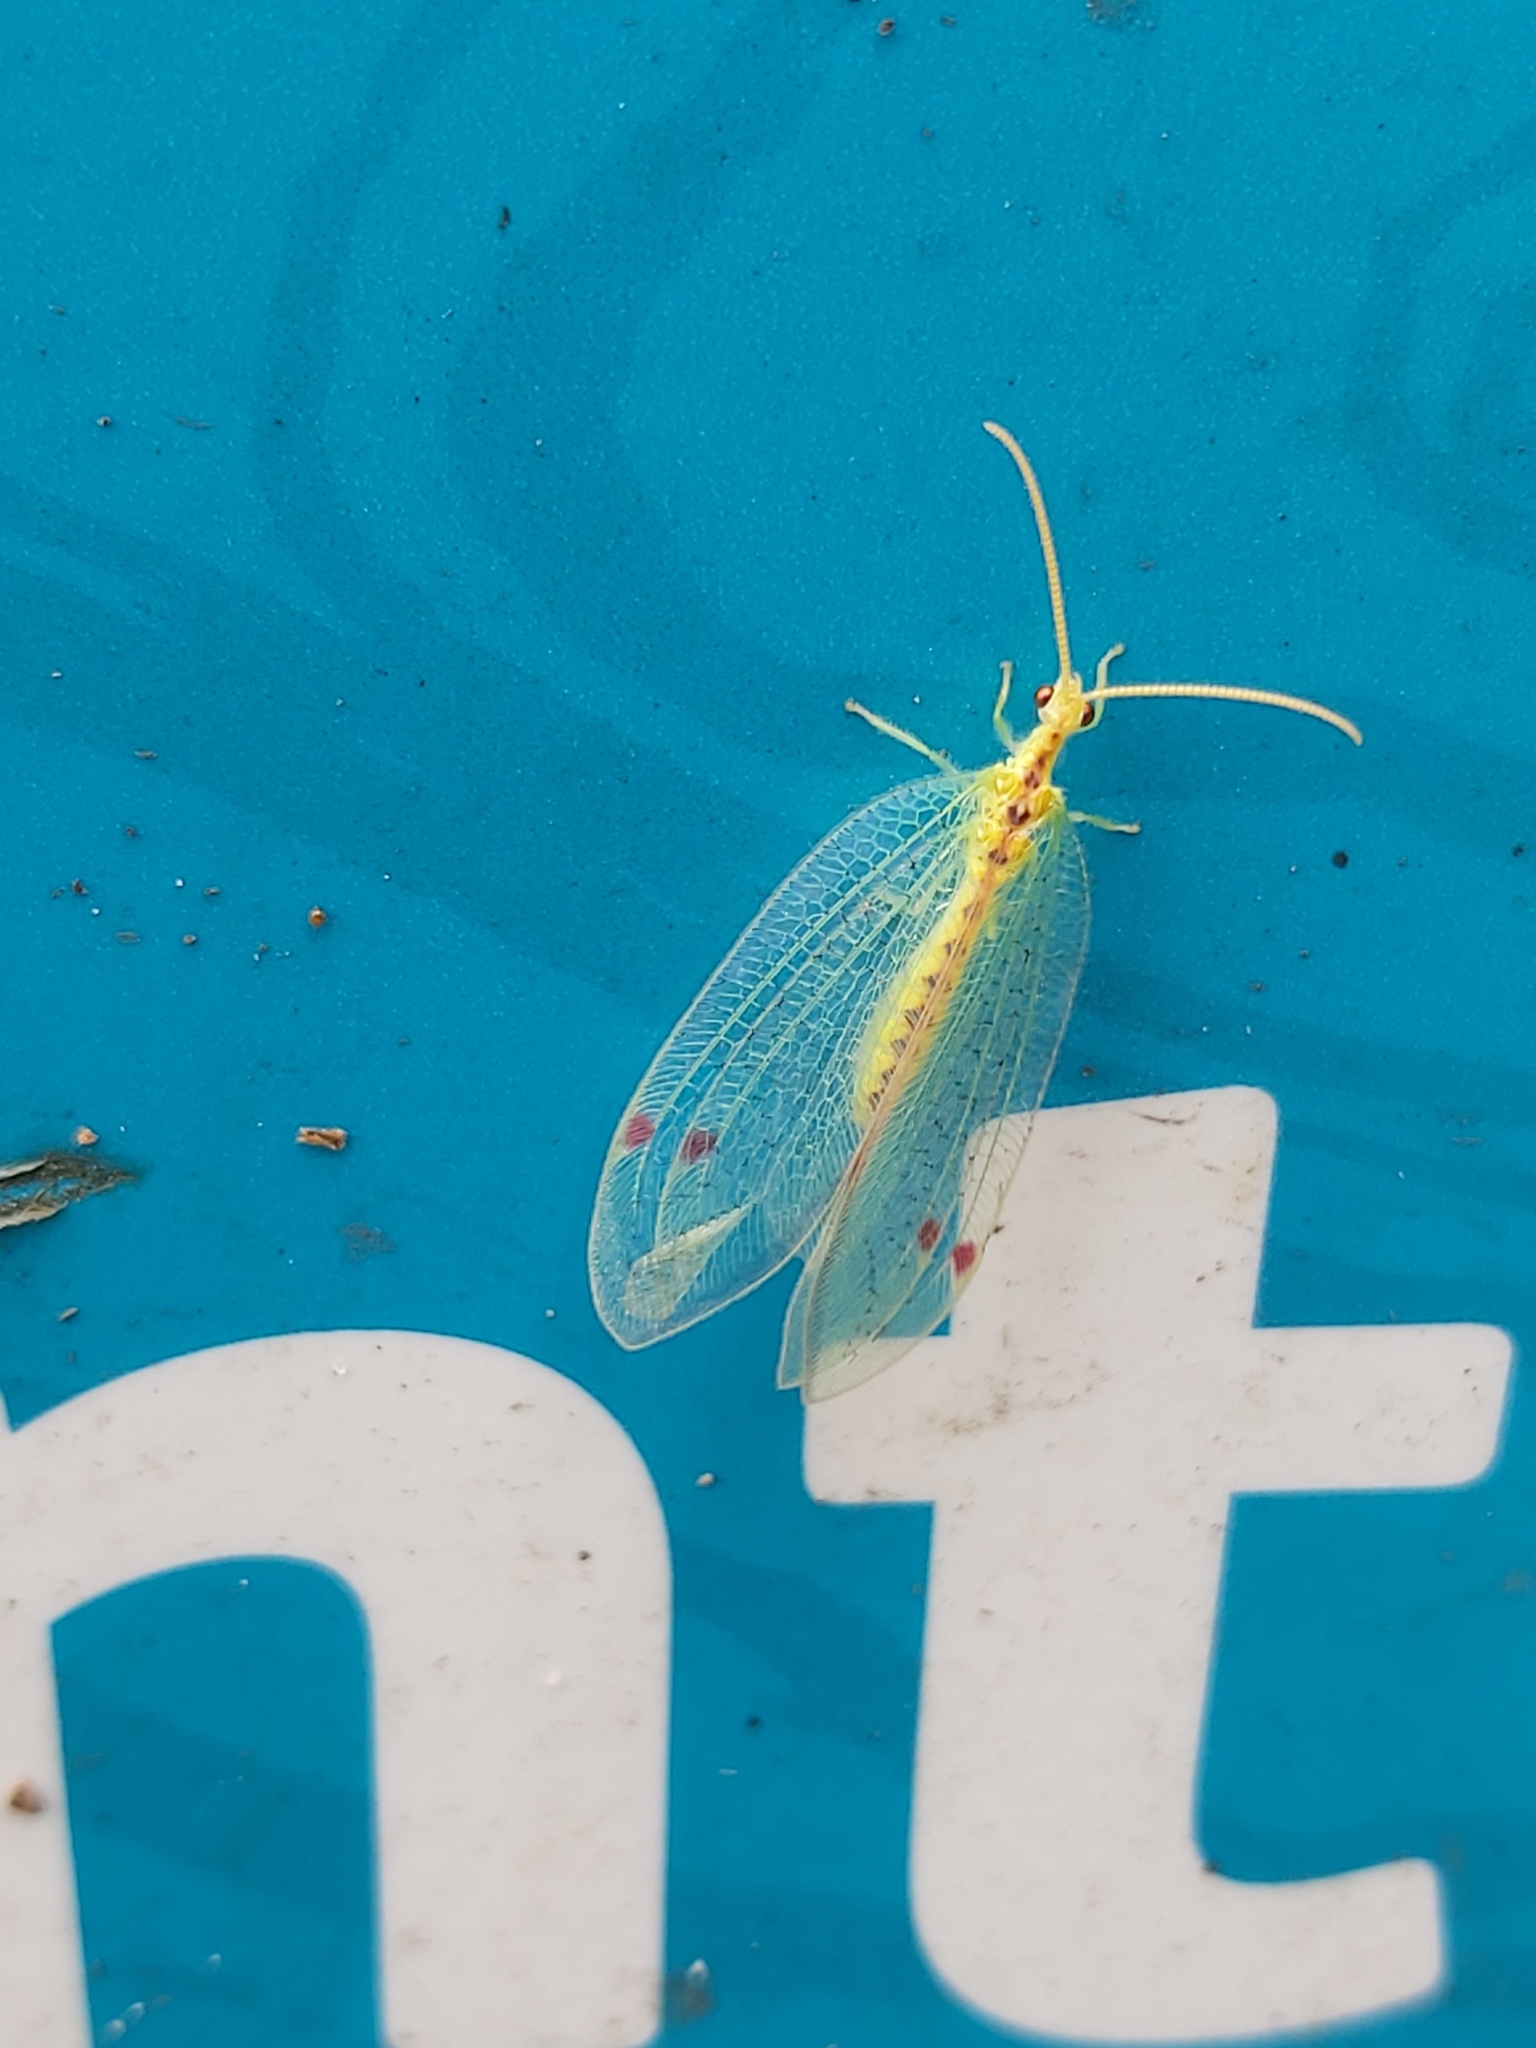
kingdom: Animalia
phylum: Arthropoda
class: Insecta
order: Neuroptera
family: Nymphidae
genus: Norfolius
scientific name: Norfolius howensis
